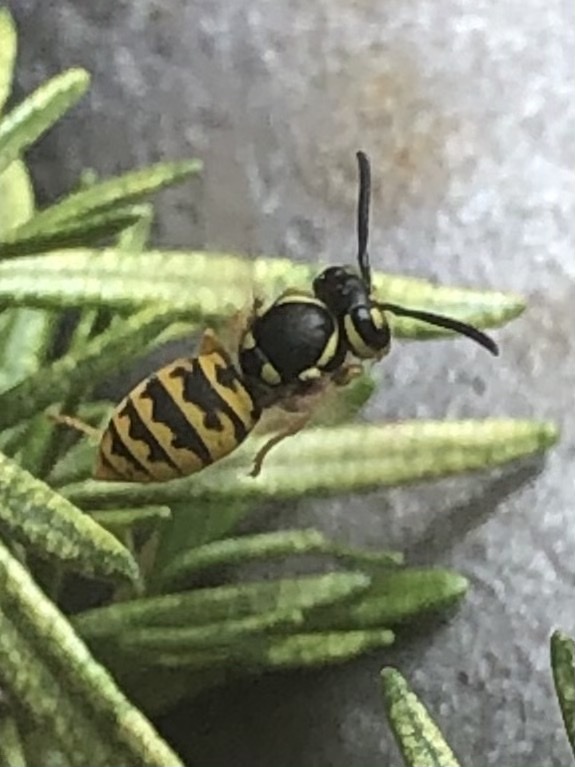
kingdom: Animalia
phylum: Arthropoda
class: Insecta
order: Hymenoptera
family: Vespidae
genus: Vespula
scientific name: Vespula germanica
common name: German wasp
